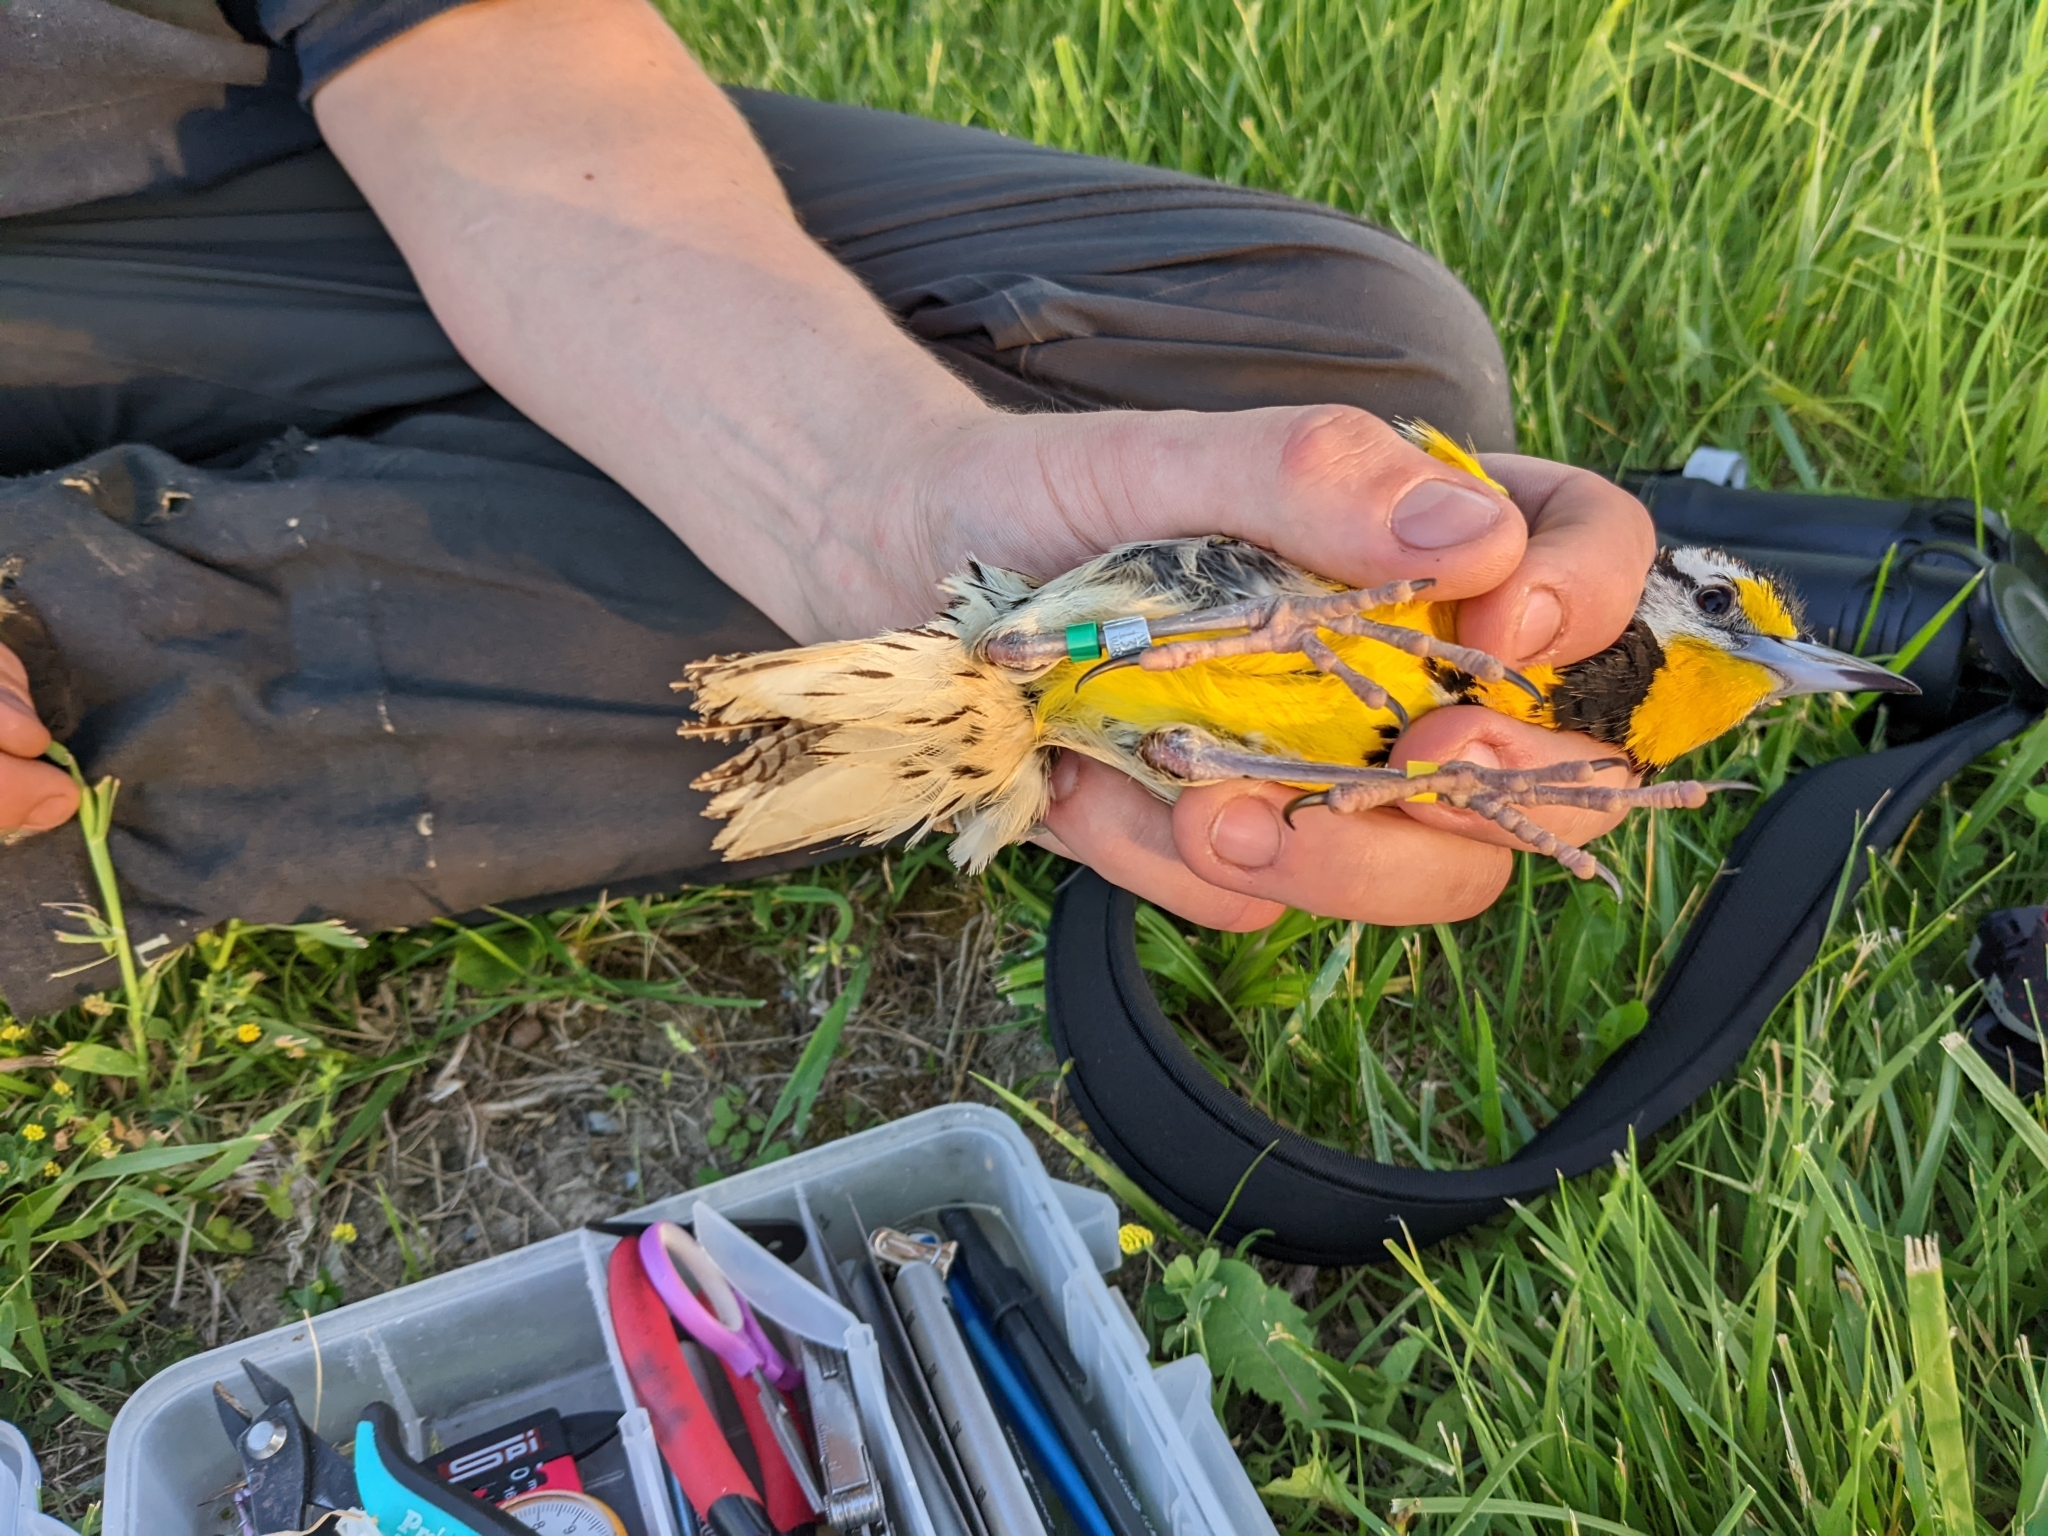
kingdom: Animalia
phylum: Chordata
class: Aves
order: Passeriformes
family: Icteridae
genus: Sturnella
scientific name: Sturnella magna
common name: Eastern meadowlark
